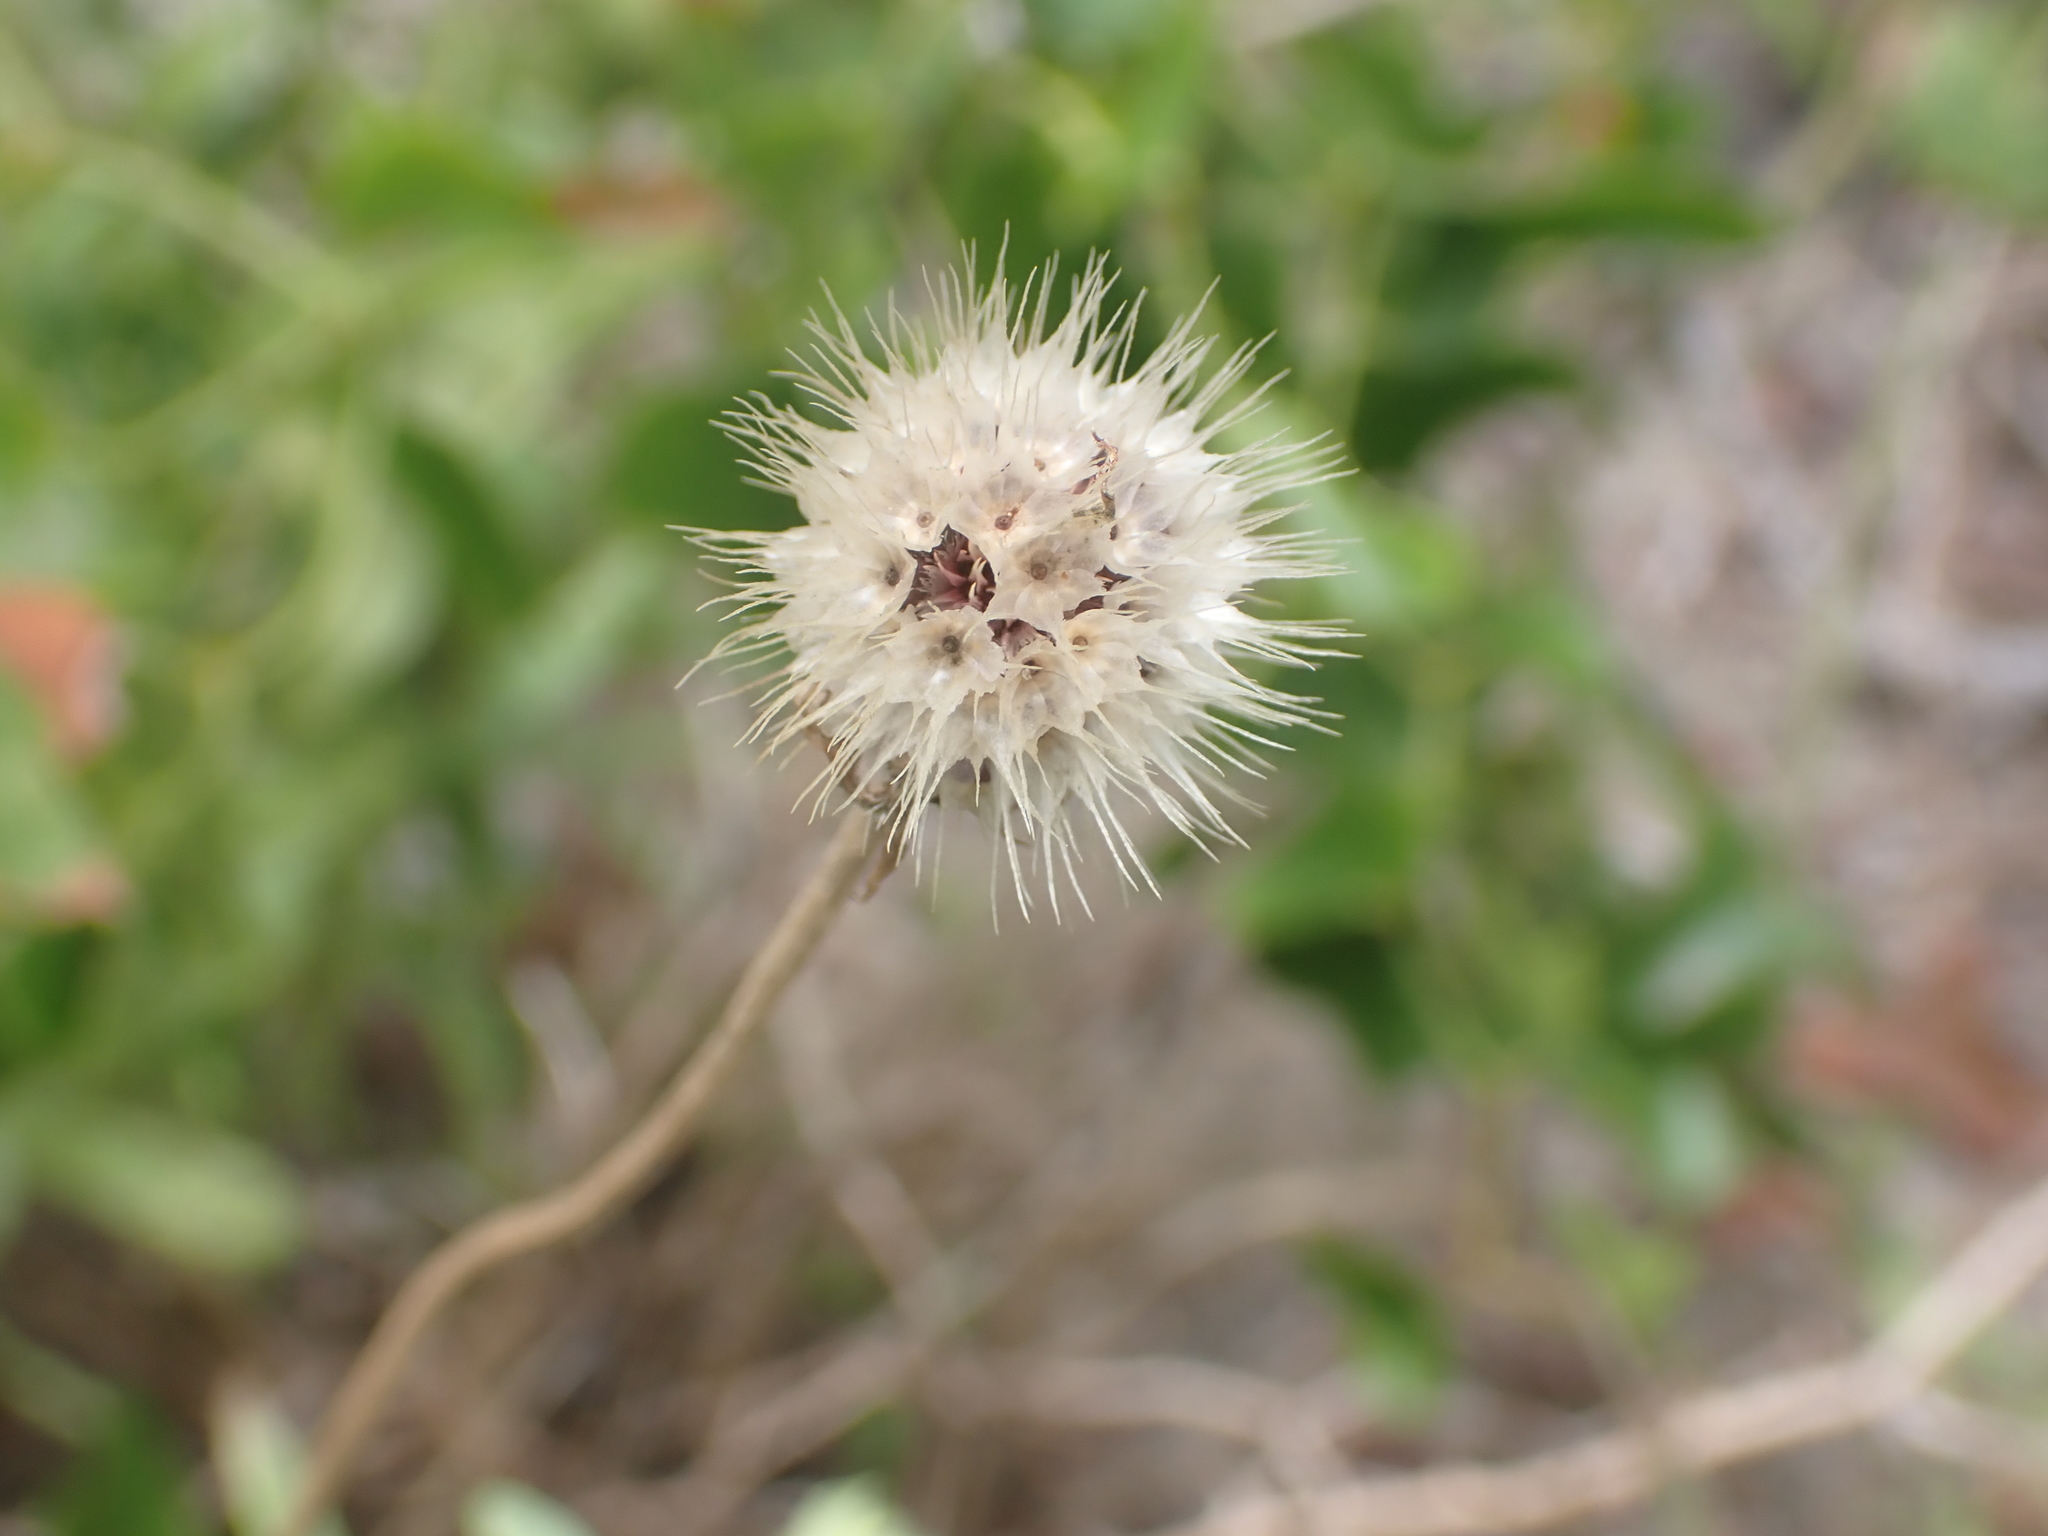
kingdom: Plantae
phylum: Tracheophyta
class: Magnoliopsida
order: Asterales
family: Asteraceae
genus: Gaillardia
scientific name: Gaillardia pulchella
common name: Firewheel
